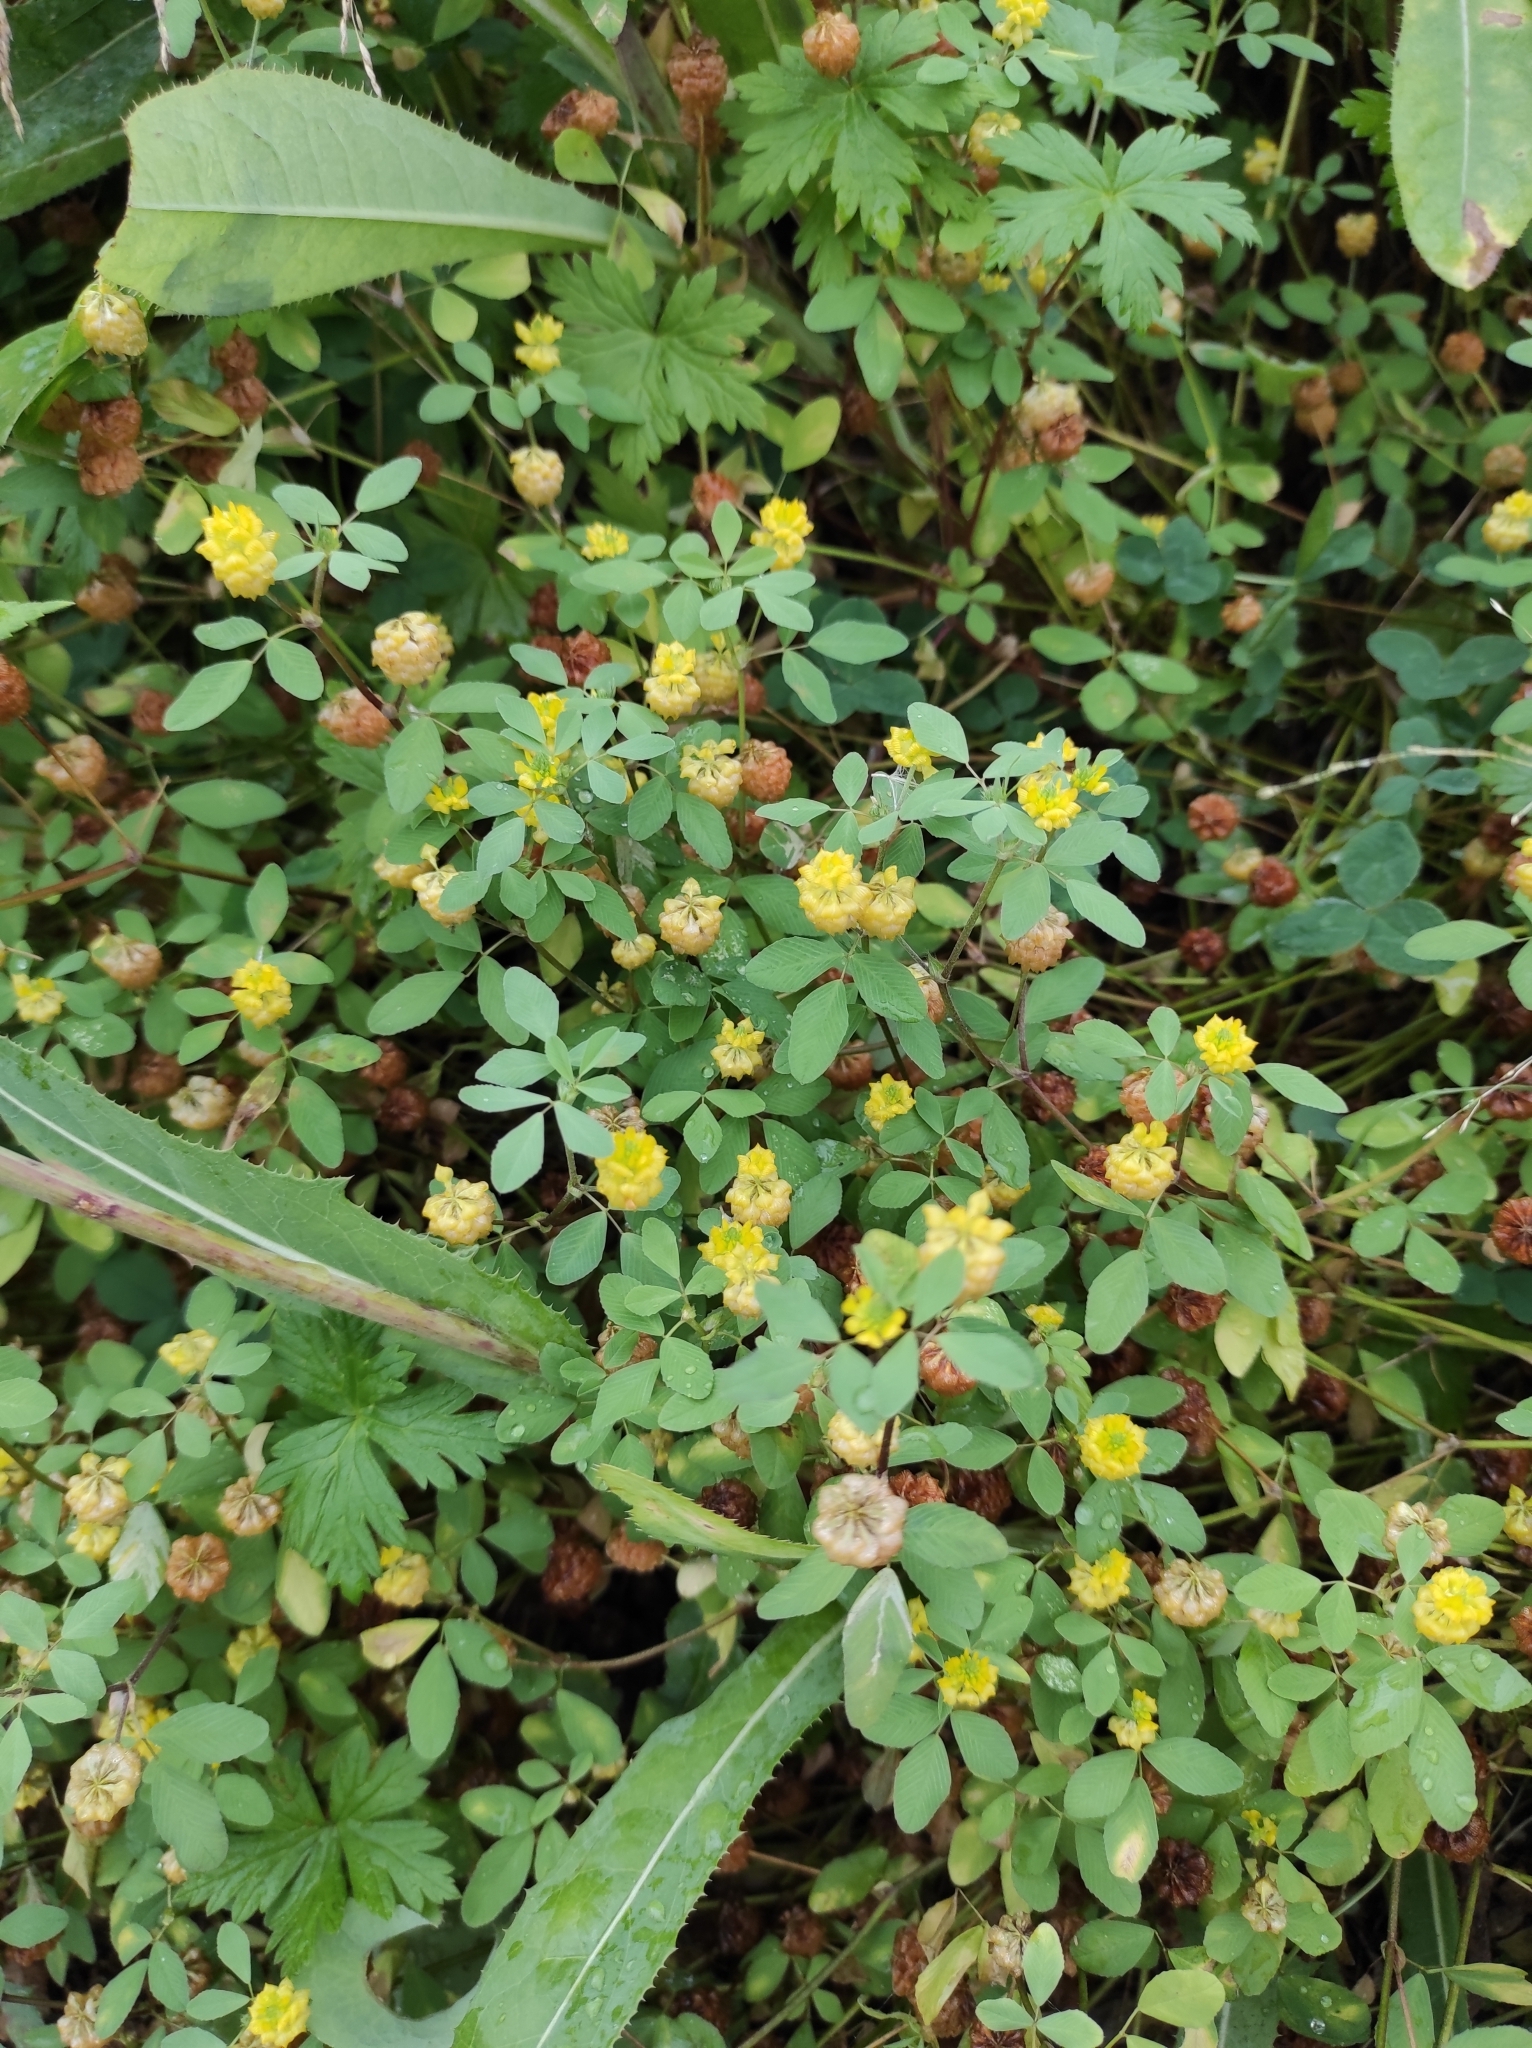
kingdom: Plantae
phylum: Tracheophyta
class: Magnoliopsida
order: Fabales
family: Fabaceae
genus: Trifolium
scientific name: Trifolium campestre
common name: Field clover
